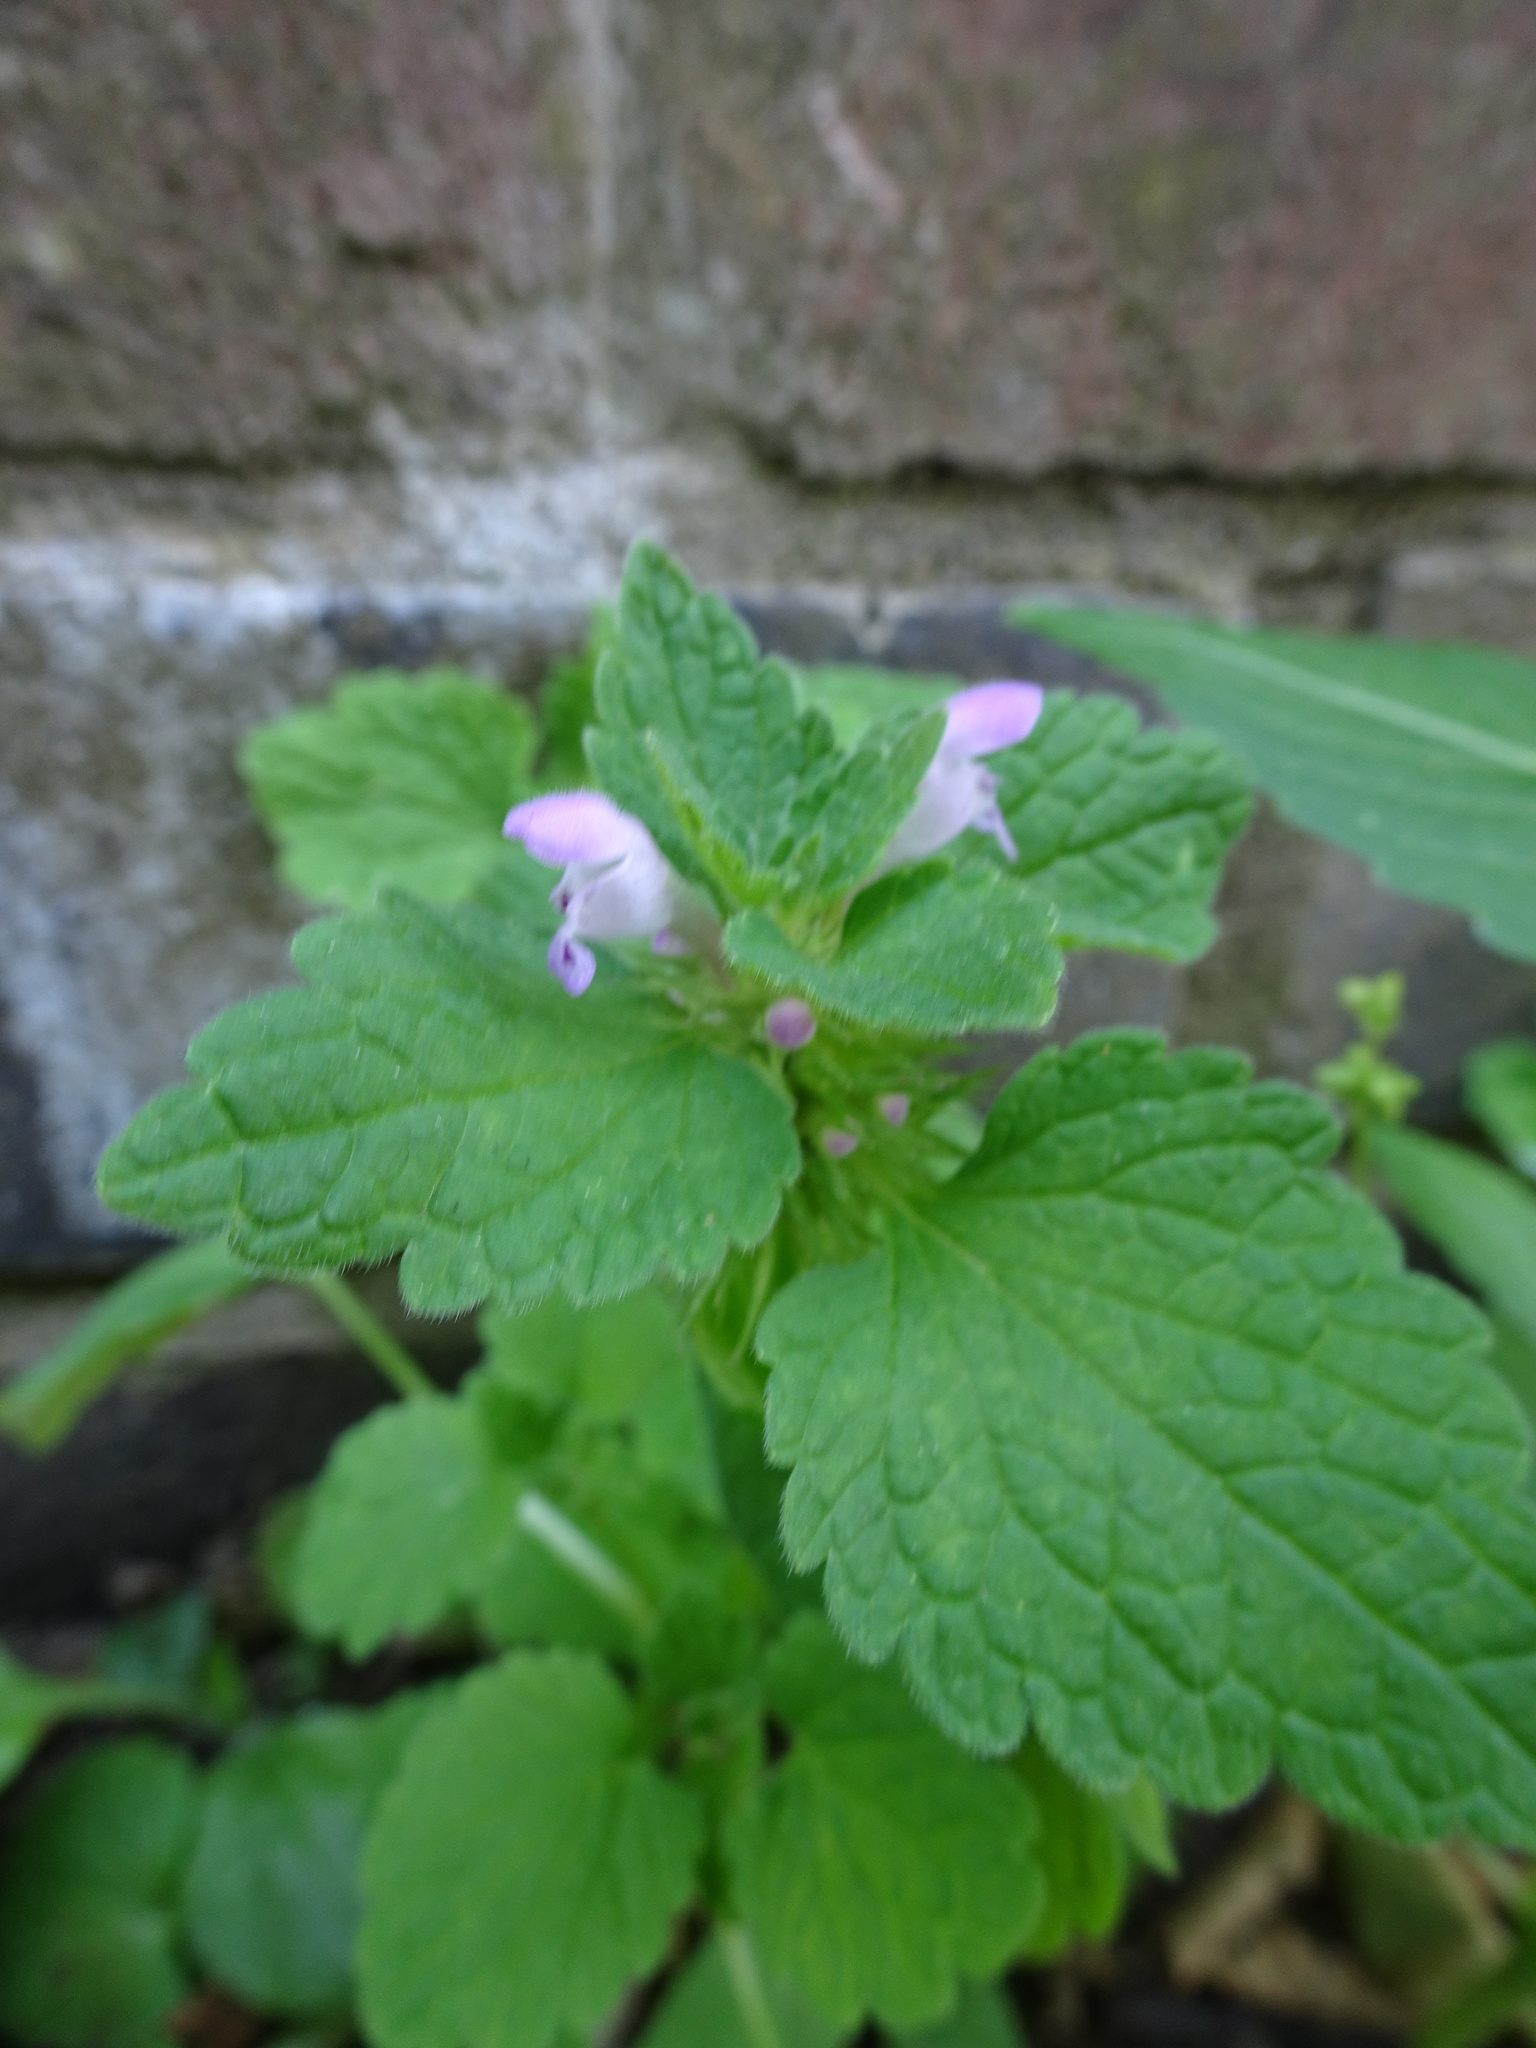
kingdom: Plantae
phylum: Tracheophyta
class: Magnoliopsida
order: Lamiales
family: Lamiaceae
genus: Lamium
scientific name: Lamium purpureum
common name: Red dead-nettle
